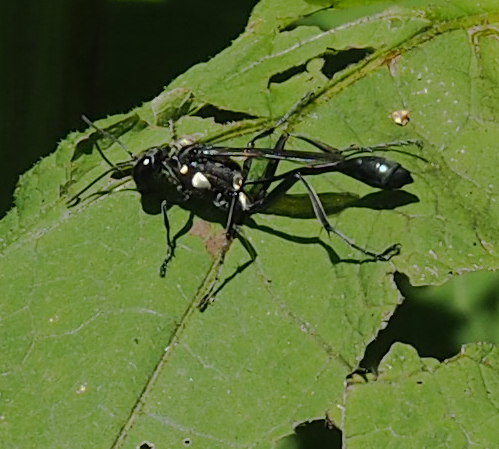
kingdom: Animalia
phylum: Arthropoda
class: Insecta
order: Hymenoptera
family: Sphecidae
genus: Eremnophila
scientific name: Eremnophila aureonotata
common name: Gold-marked thread-waisted wasp
